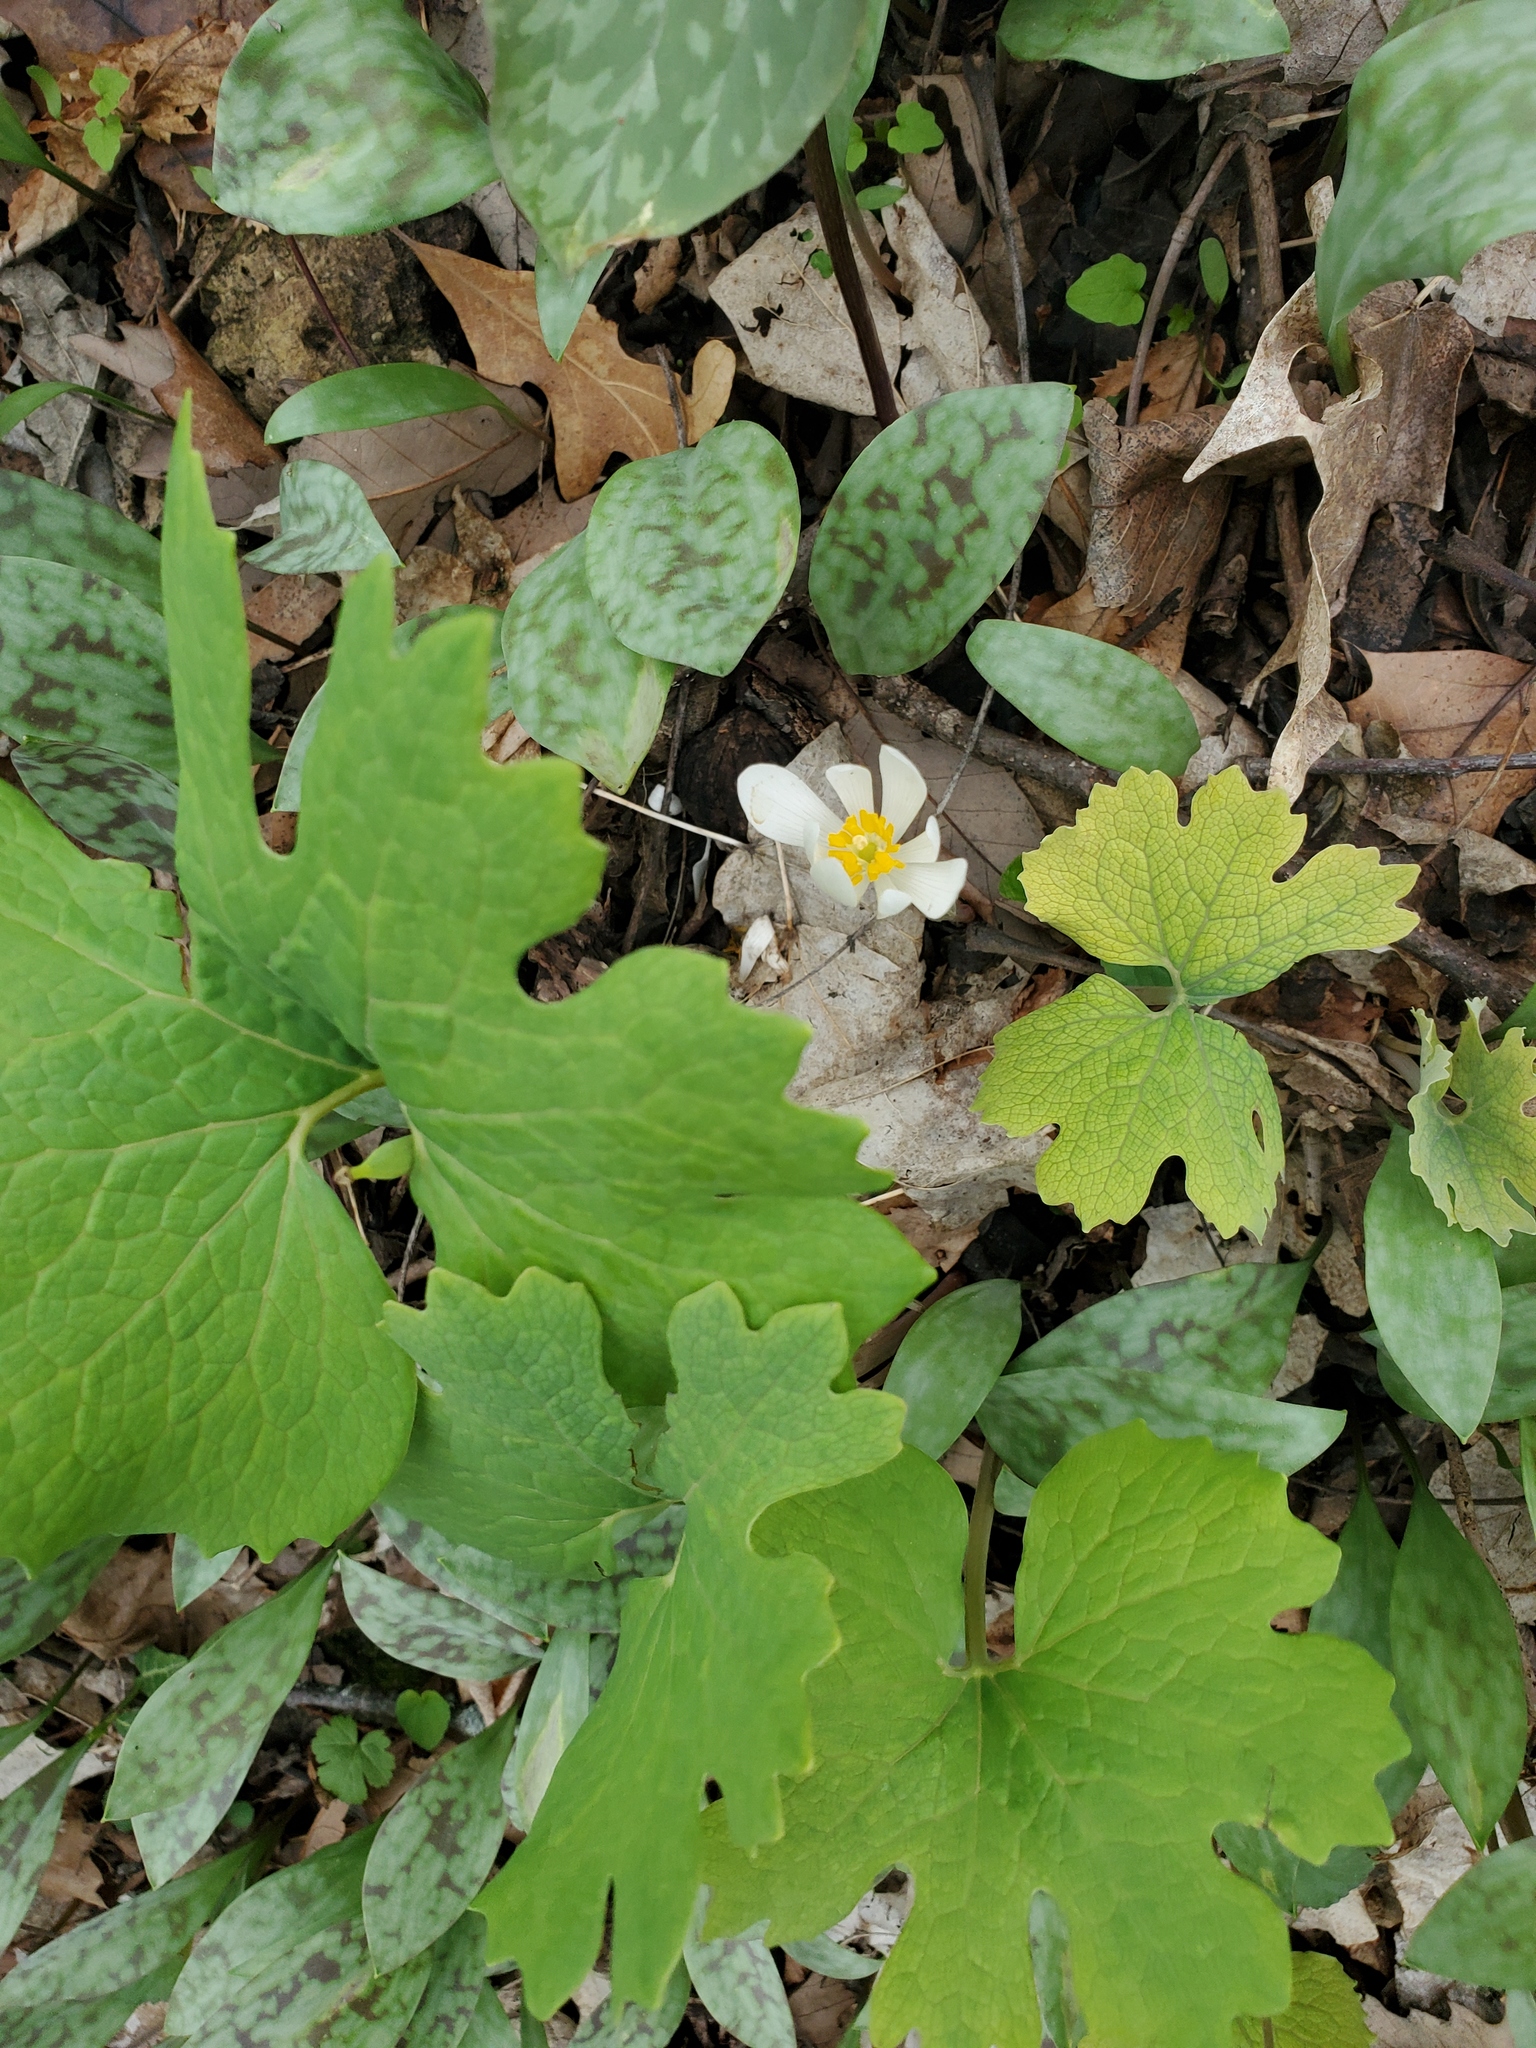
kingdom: Plantae
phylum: Tracheophyta
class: Magnoliopsida
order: Ranunculales
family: Papaveraceae
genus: Sanguinaria
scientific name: Sanguinaria canadensis
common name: Bloodroot
